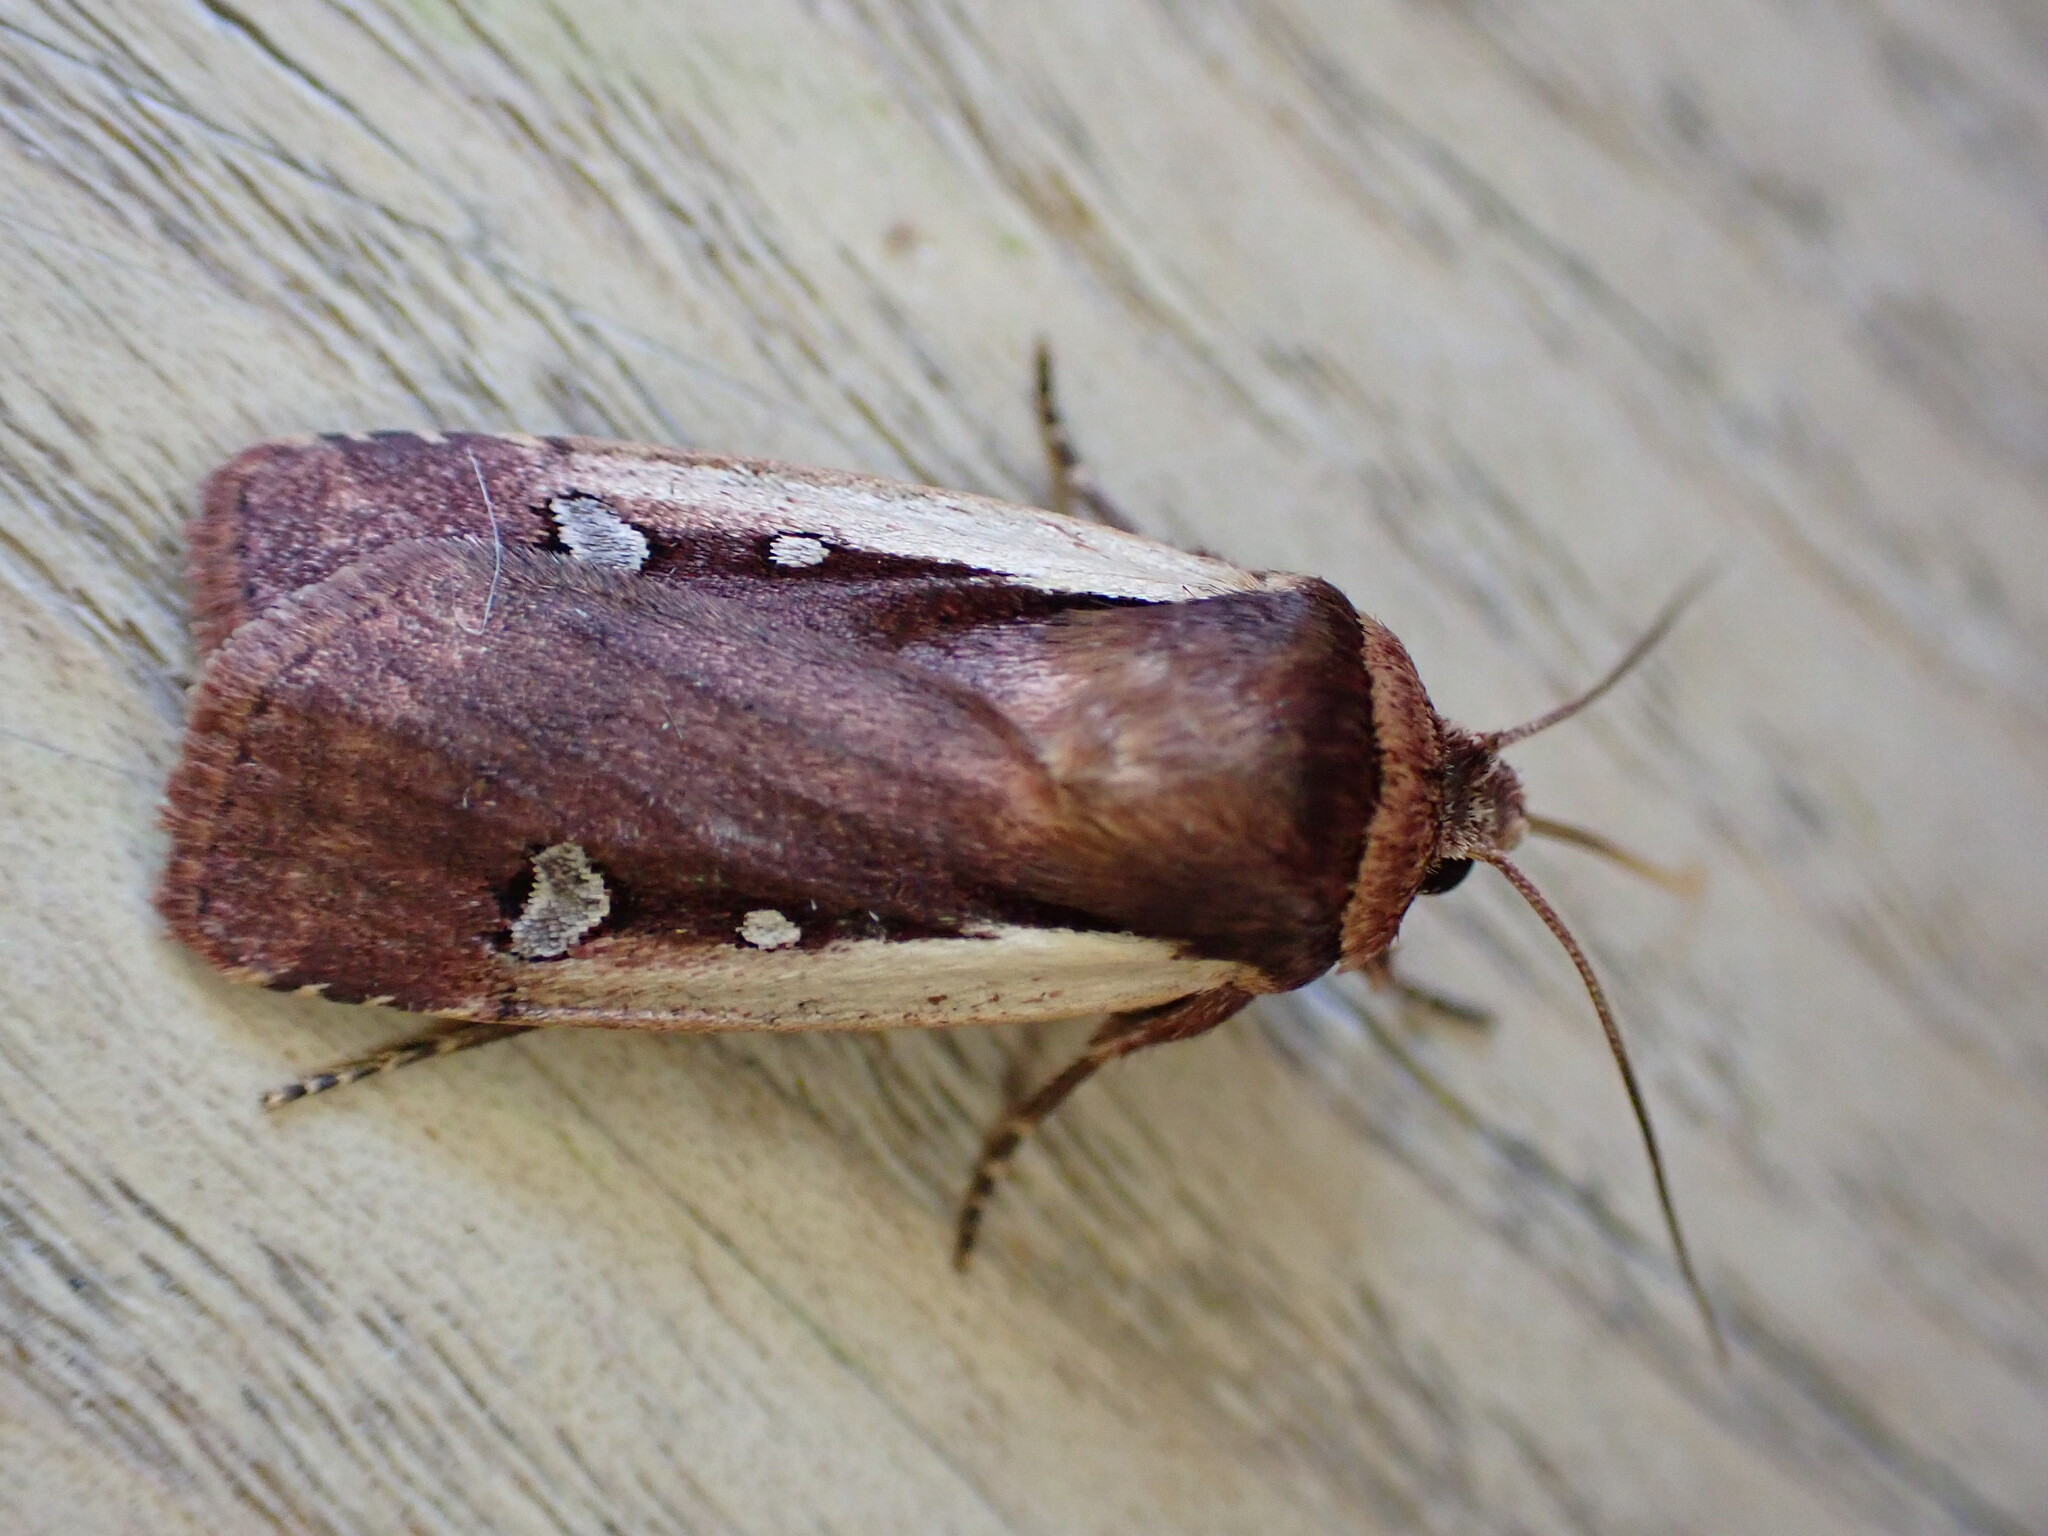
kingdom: Animalia
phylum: Arthropoda
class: Insecta
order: Lepidoptera
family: Noctuidae
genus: Ochropleura
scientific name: Ochropleura plecta
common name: Flame shoulder
